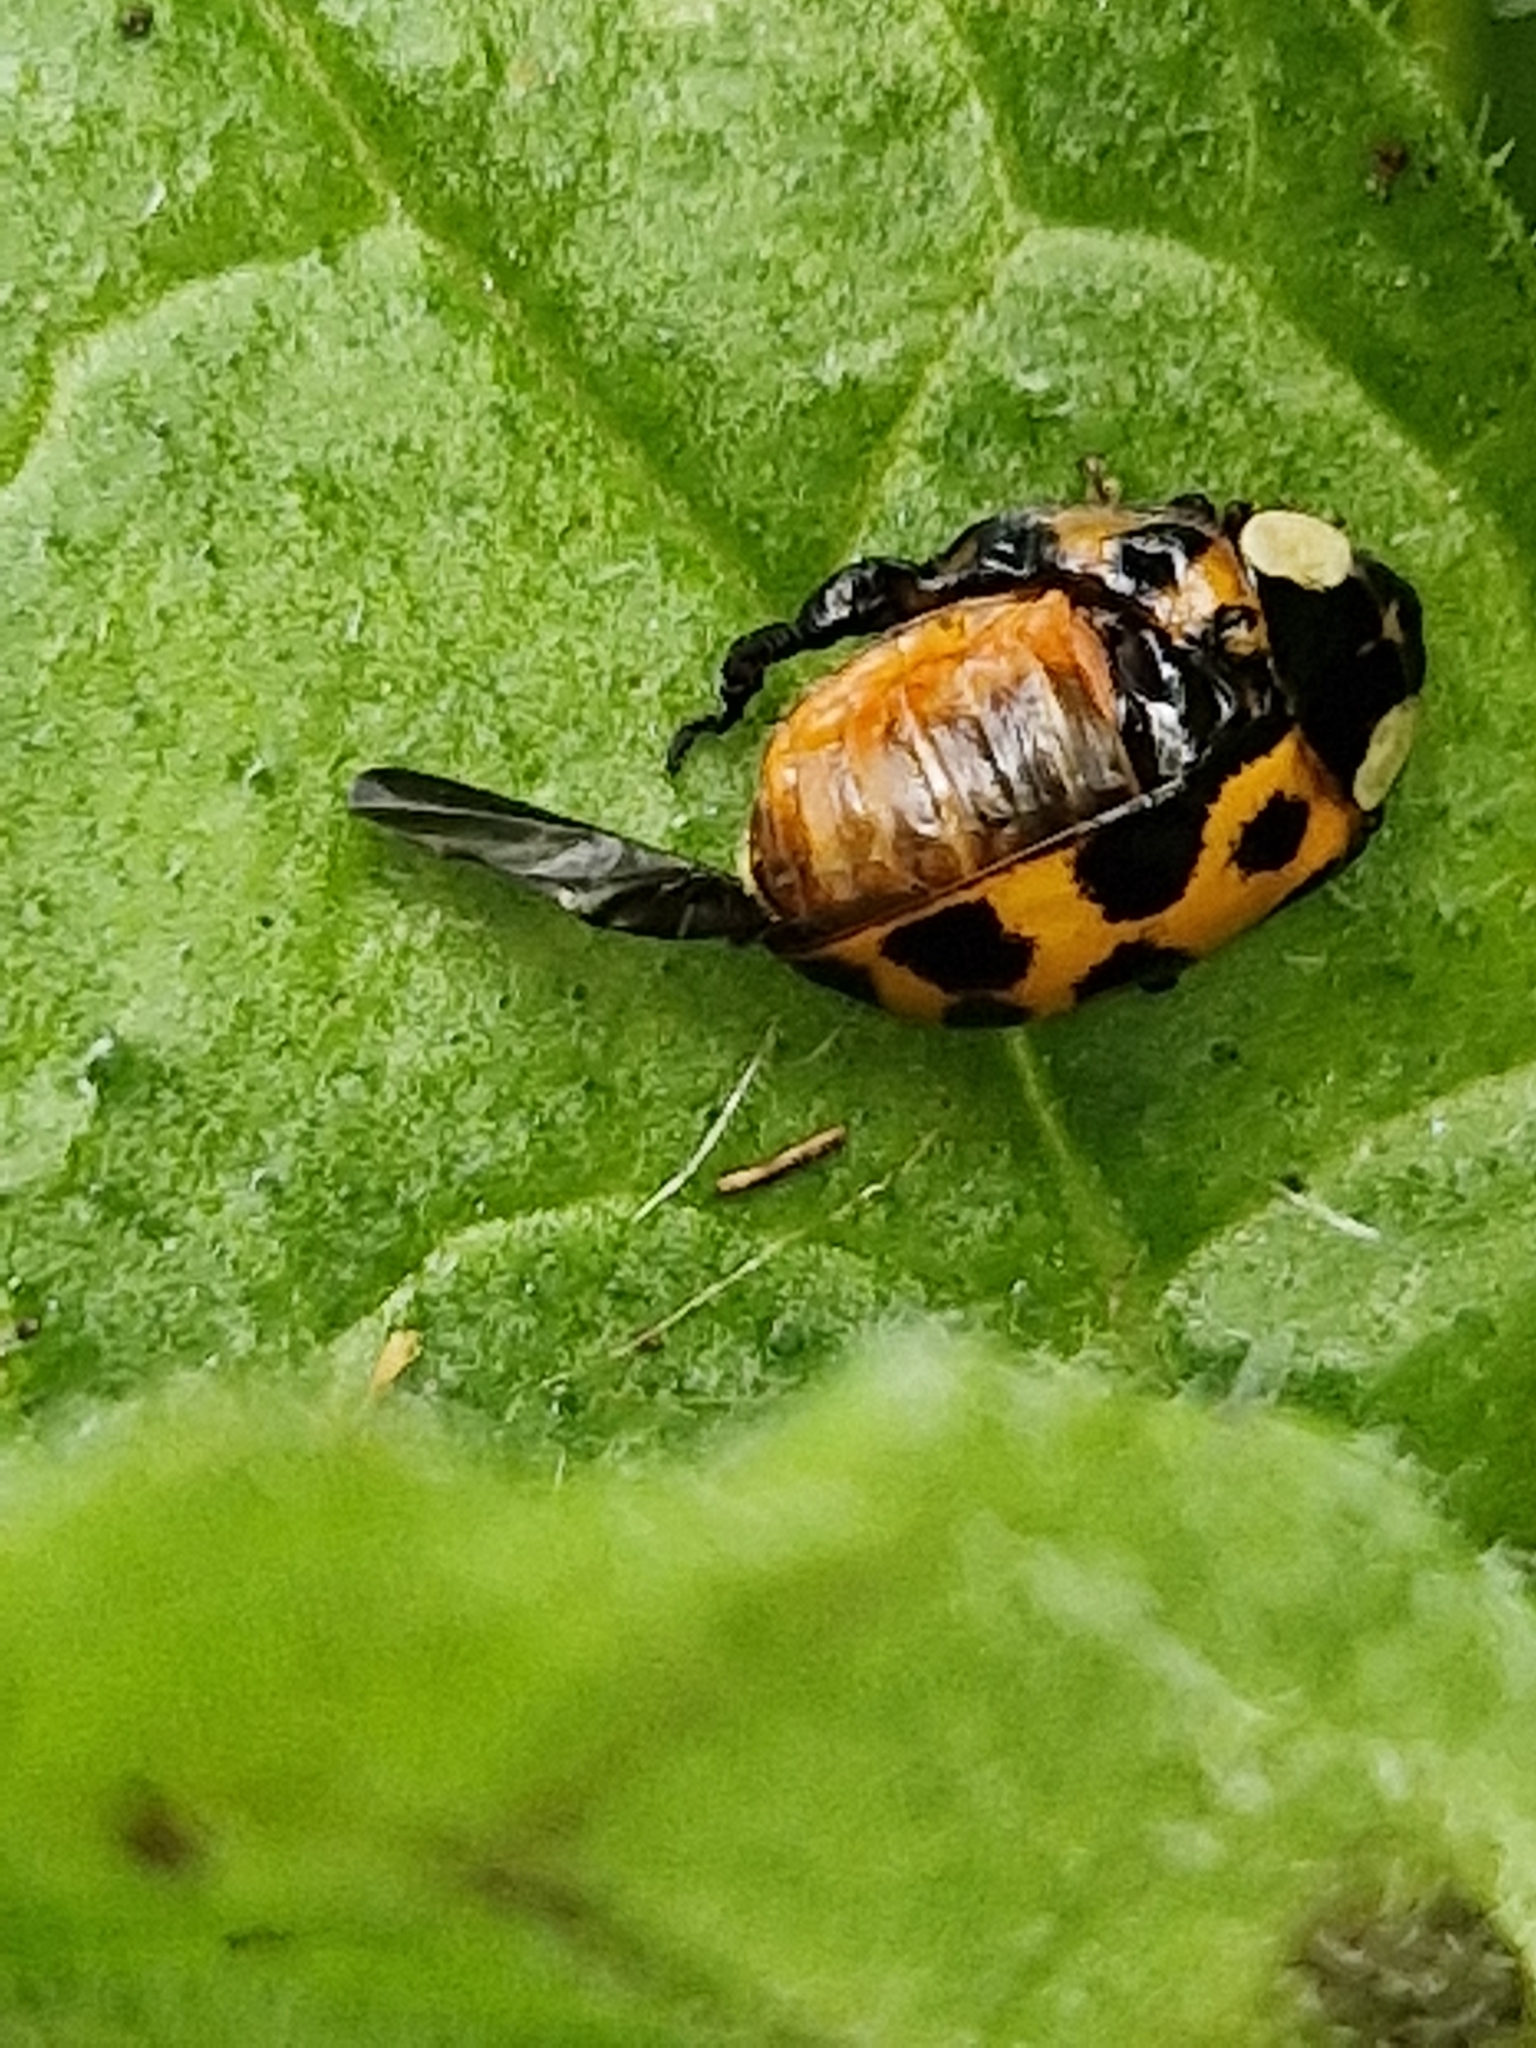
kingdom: Animalia
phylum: Arthropoda
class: Insecta
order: Coleoptera
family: Coccinellidae
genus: Harmonia
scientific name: Harmonia axyridis
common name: Harlequin ladybird
